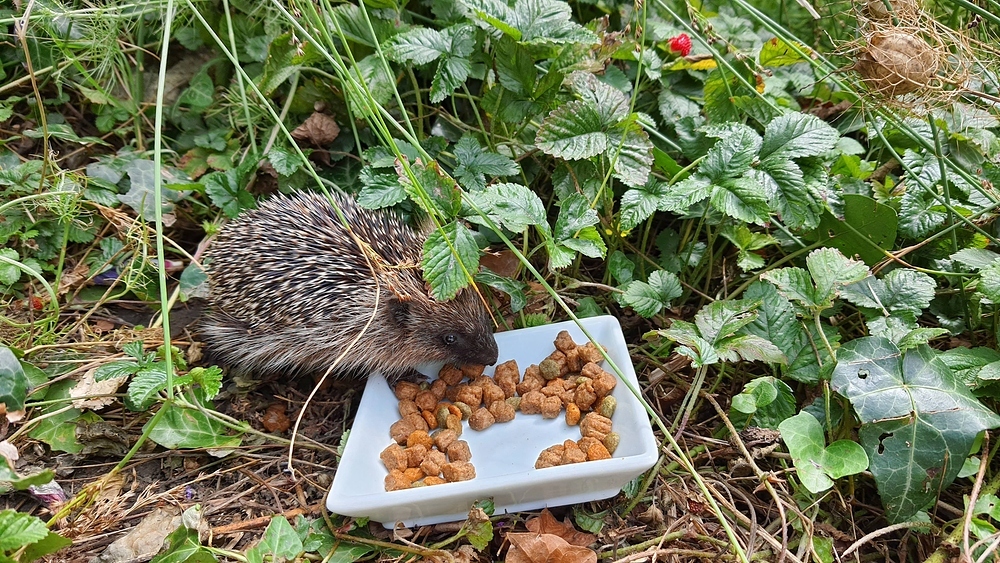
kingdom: Animalia
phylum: Chordata
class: Mammalia
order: Erinaceomorpha
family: Erinaceidae
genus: Erinaceus
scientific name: Erinaceus europaeus
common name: West european hedgehog
